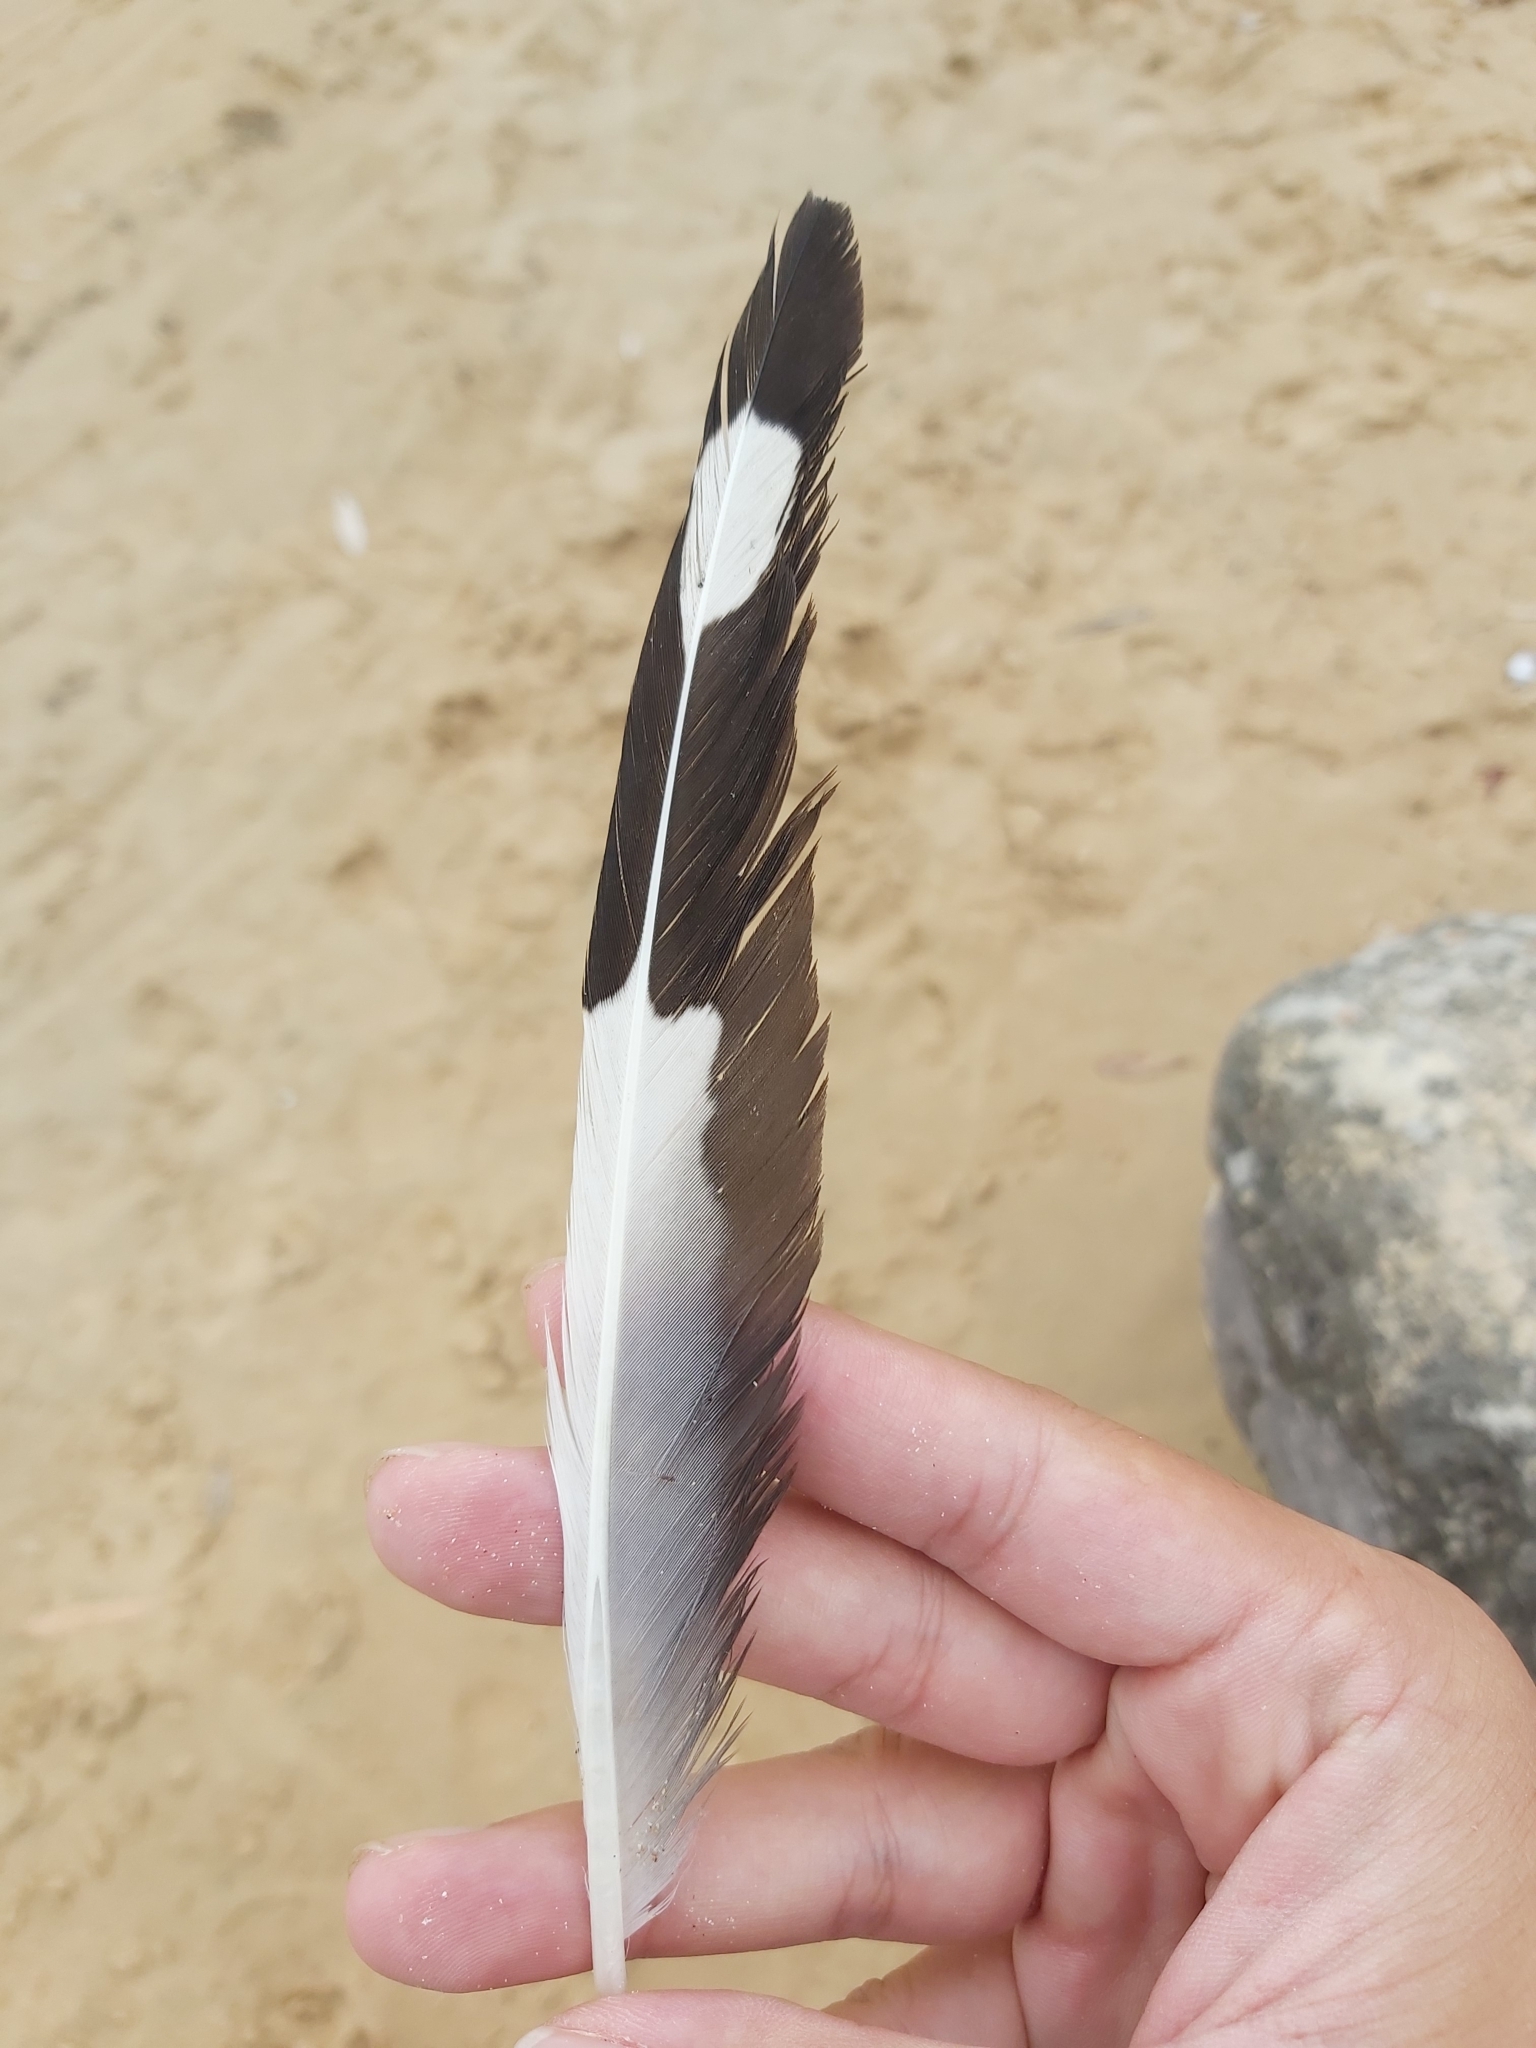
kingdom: Animalia
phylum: Chordata
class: Aves
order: Charadriiformes
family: Laridae
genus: Chroicocephalus
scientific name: Chroicocephalus novaehollandiae
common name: Silver gull
